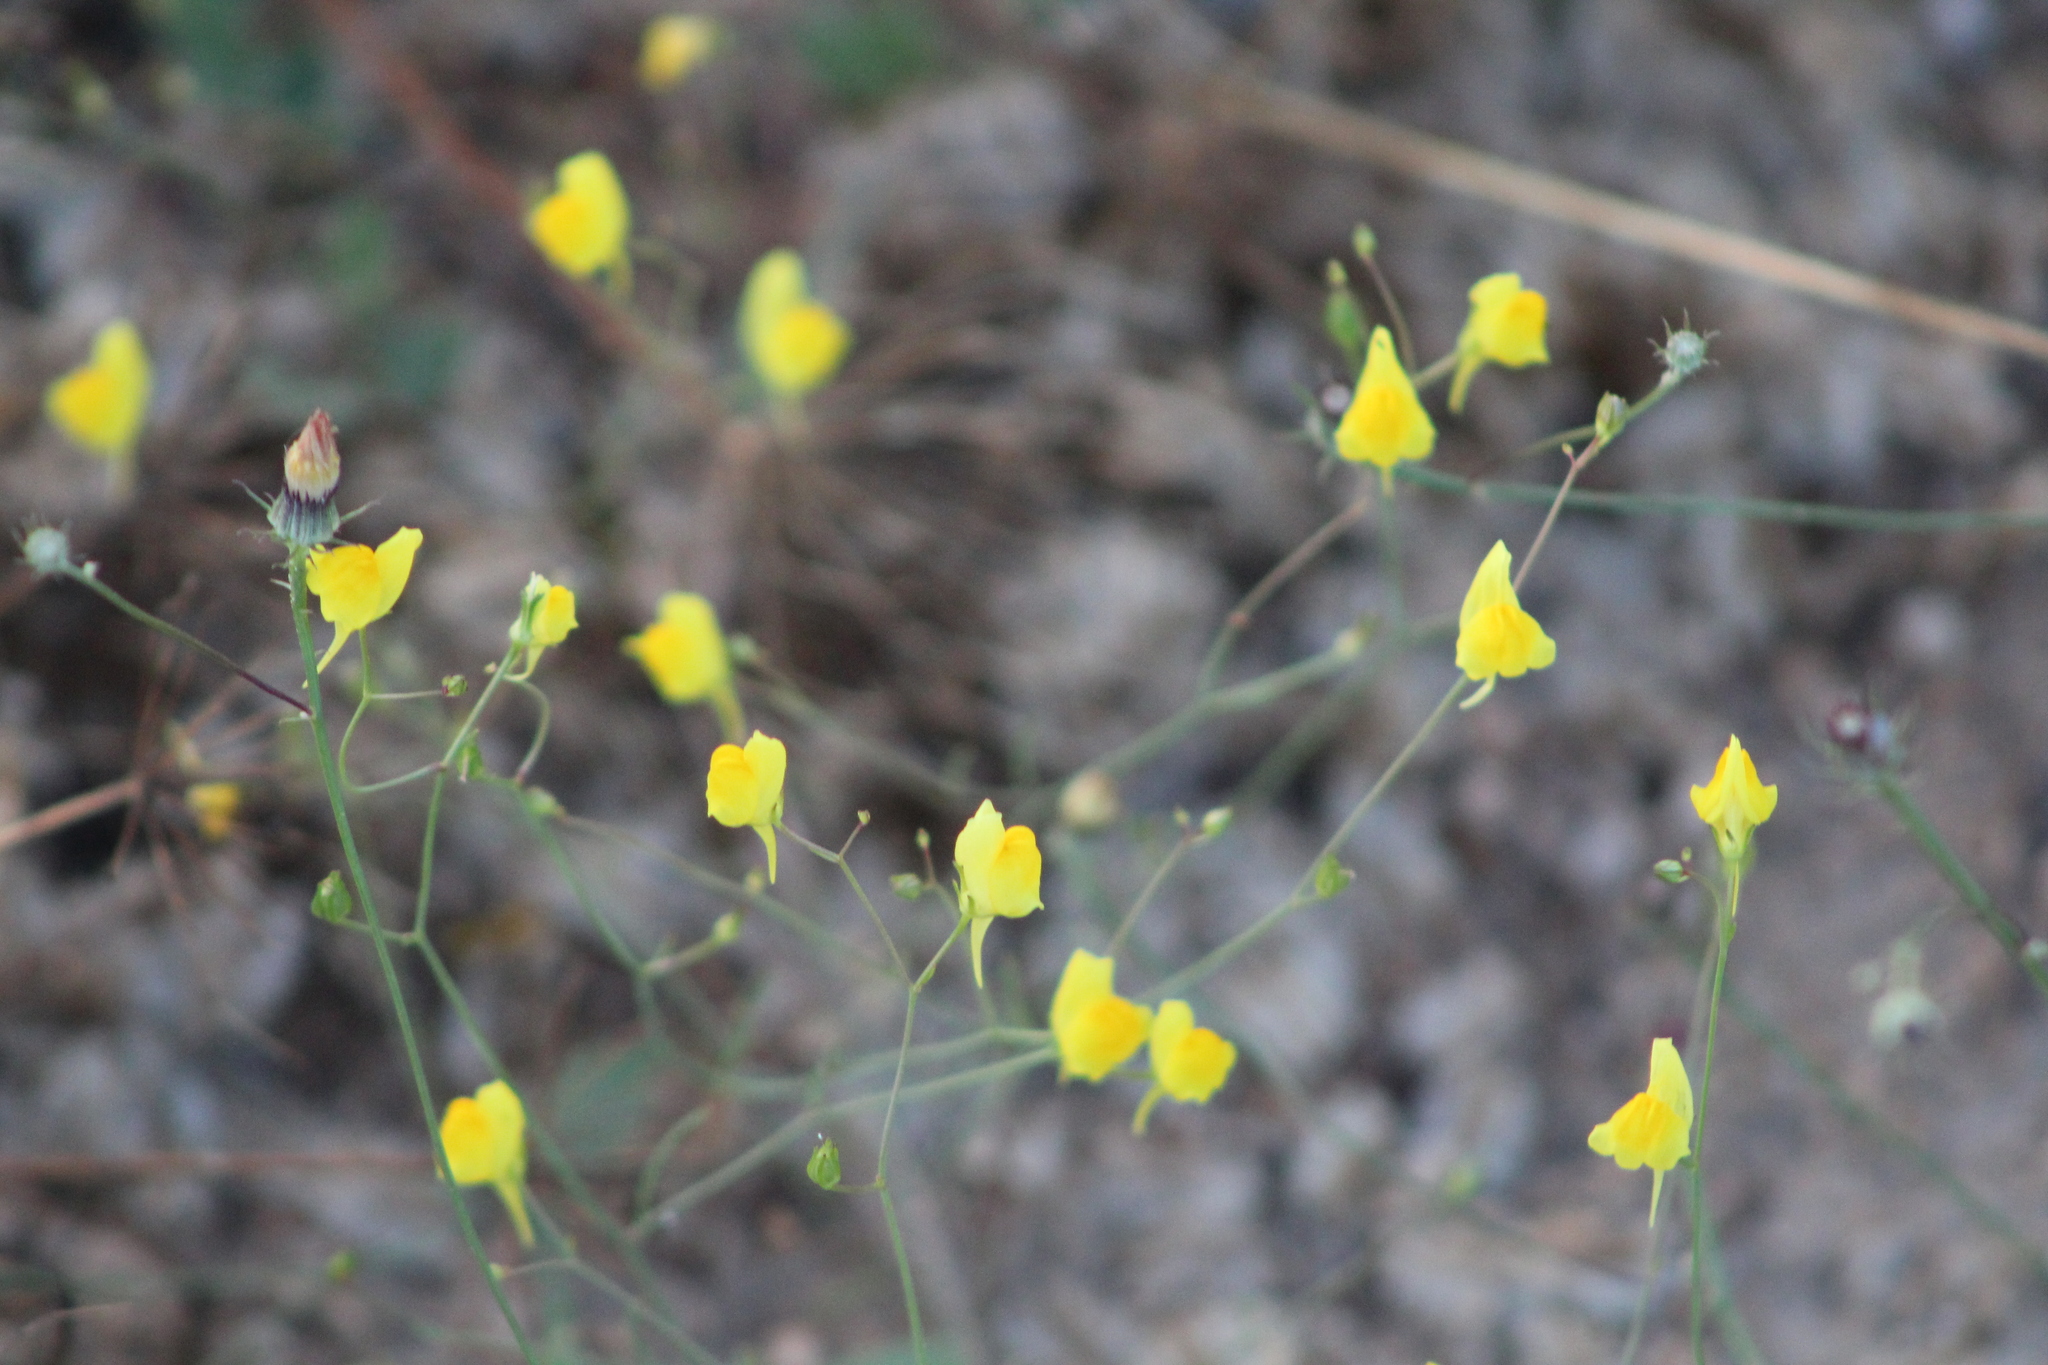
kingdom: Plantae
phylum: Tracheophyta
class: Magnoliopsida
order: Lamiales
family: Plantaginaceae
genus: Linaria
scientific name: Linaria spartea
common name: Ballast toadflax
